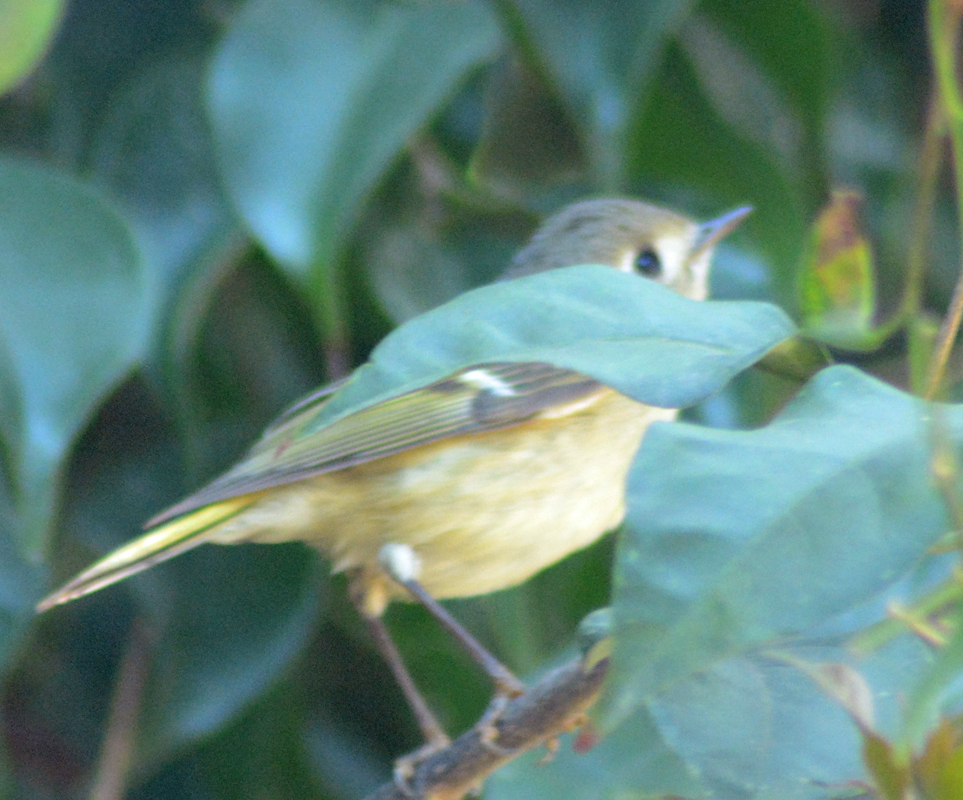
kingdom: Animalia
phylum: Chordata
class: Aves
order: Passeriformes
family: Regulidae
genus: Regulus
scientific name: Regulus calendula
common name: Ruby-crowned kinglet
